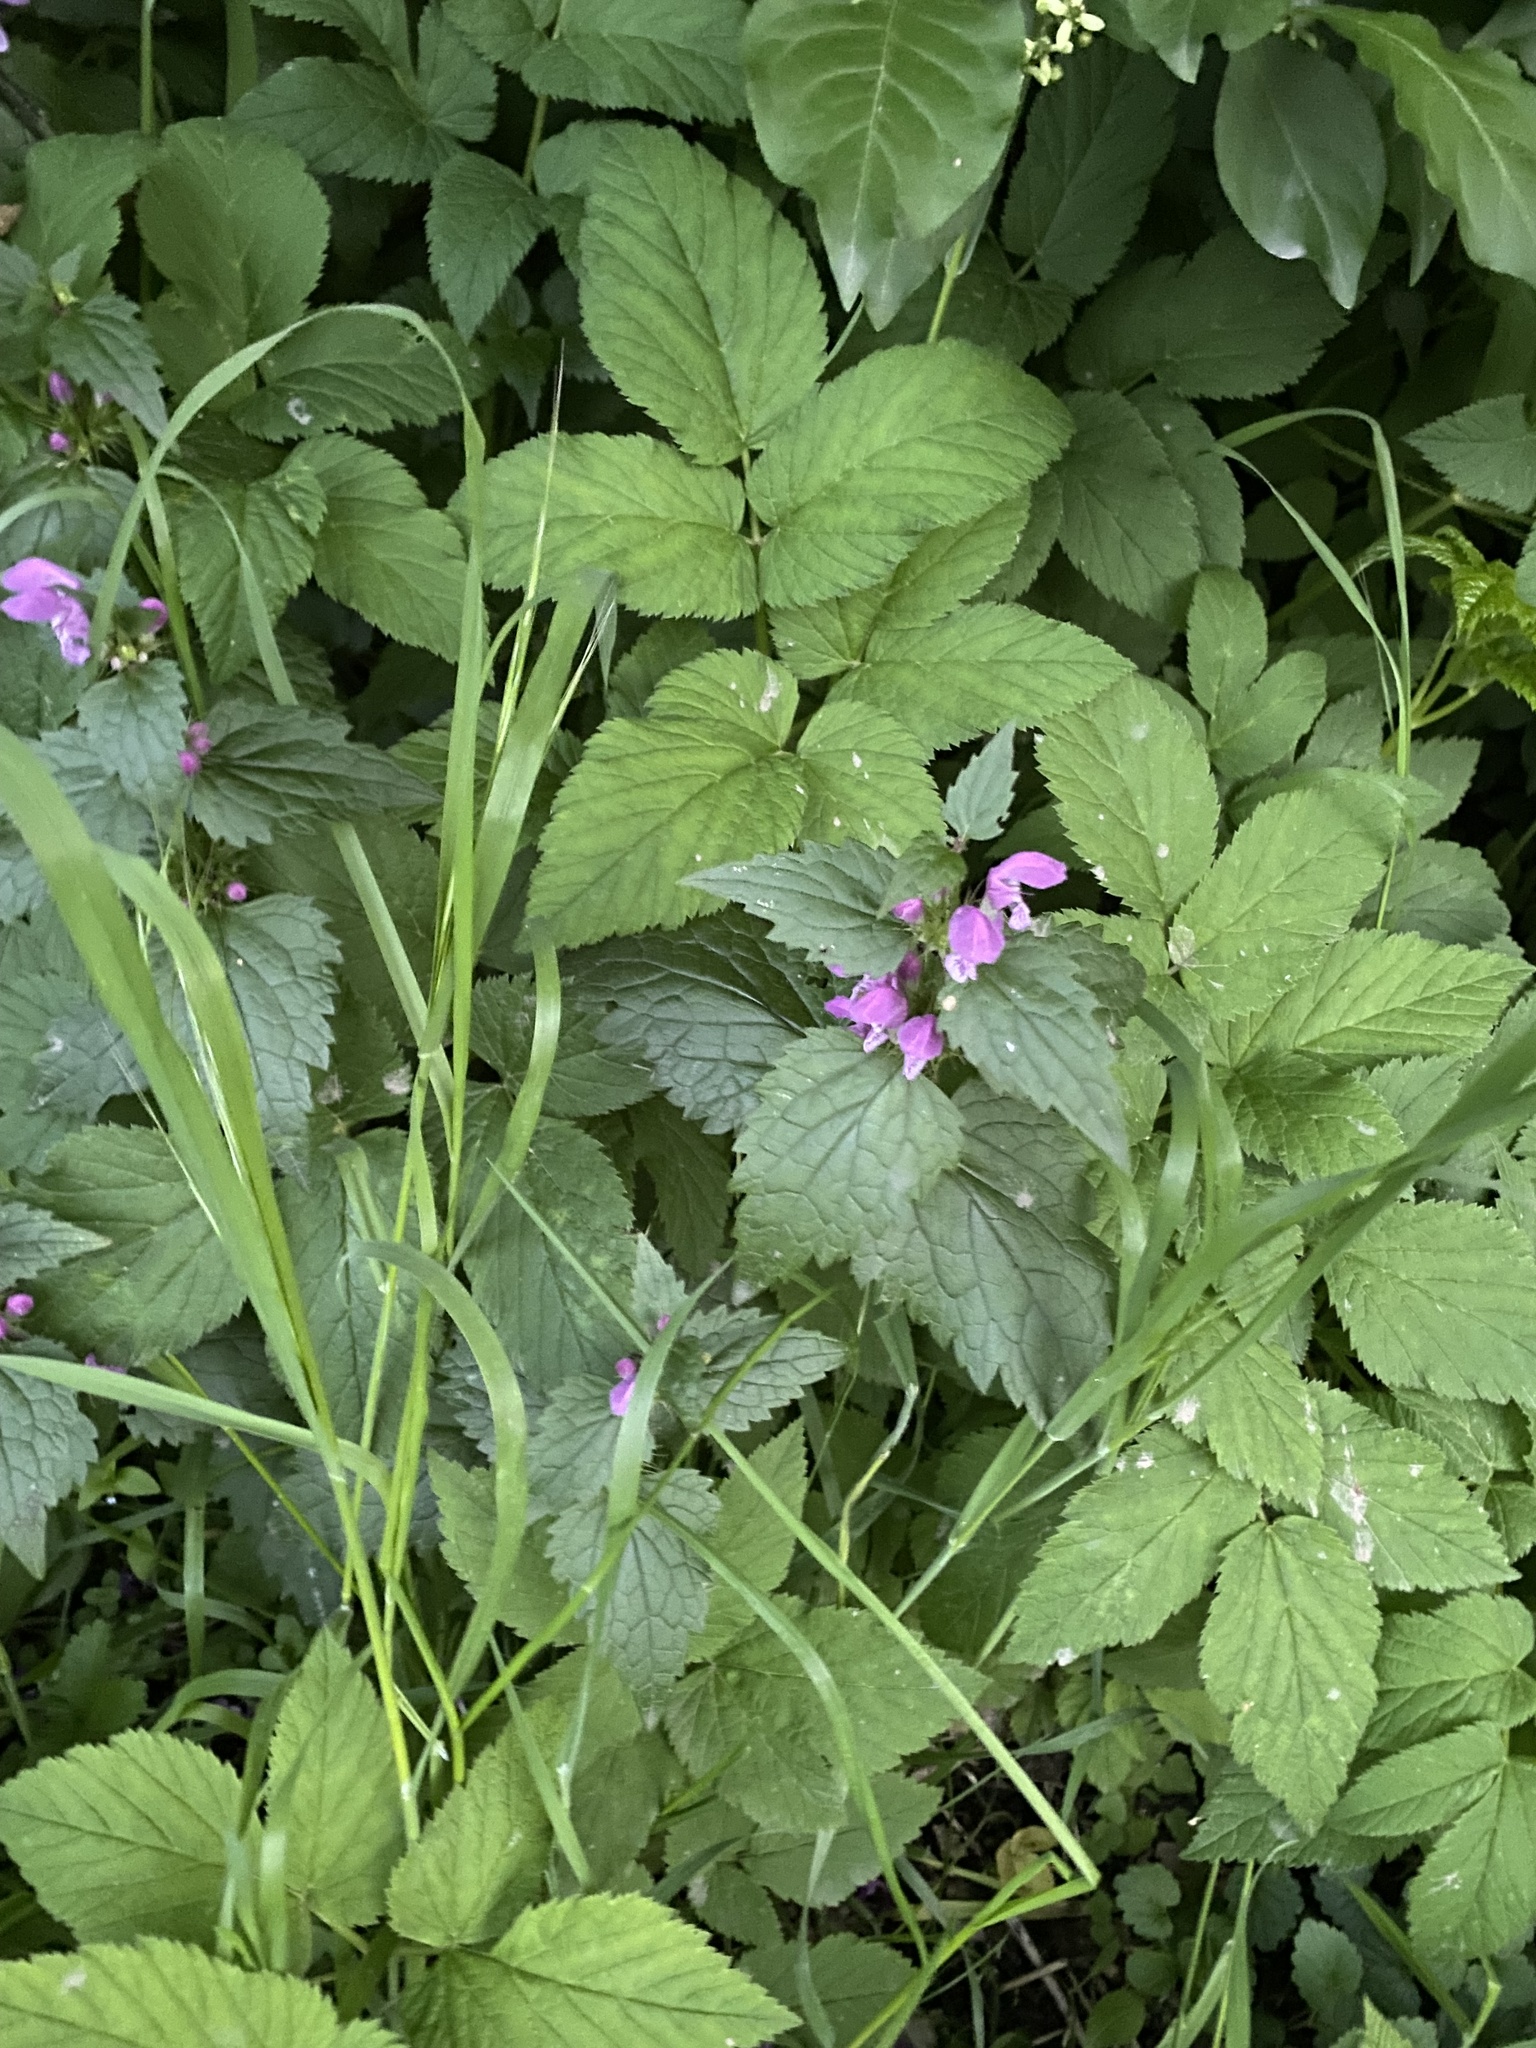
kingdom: Plantae
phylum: Tracheophyta
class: Magnoliopsida
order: Lamiales
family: Lamiaceae
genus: Lamium
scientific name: Lamium maculatum
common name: Spotted dead-nettle
